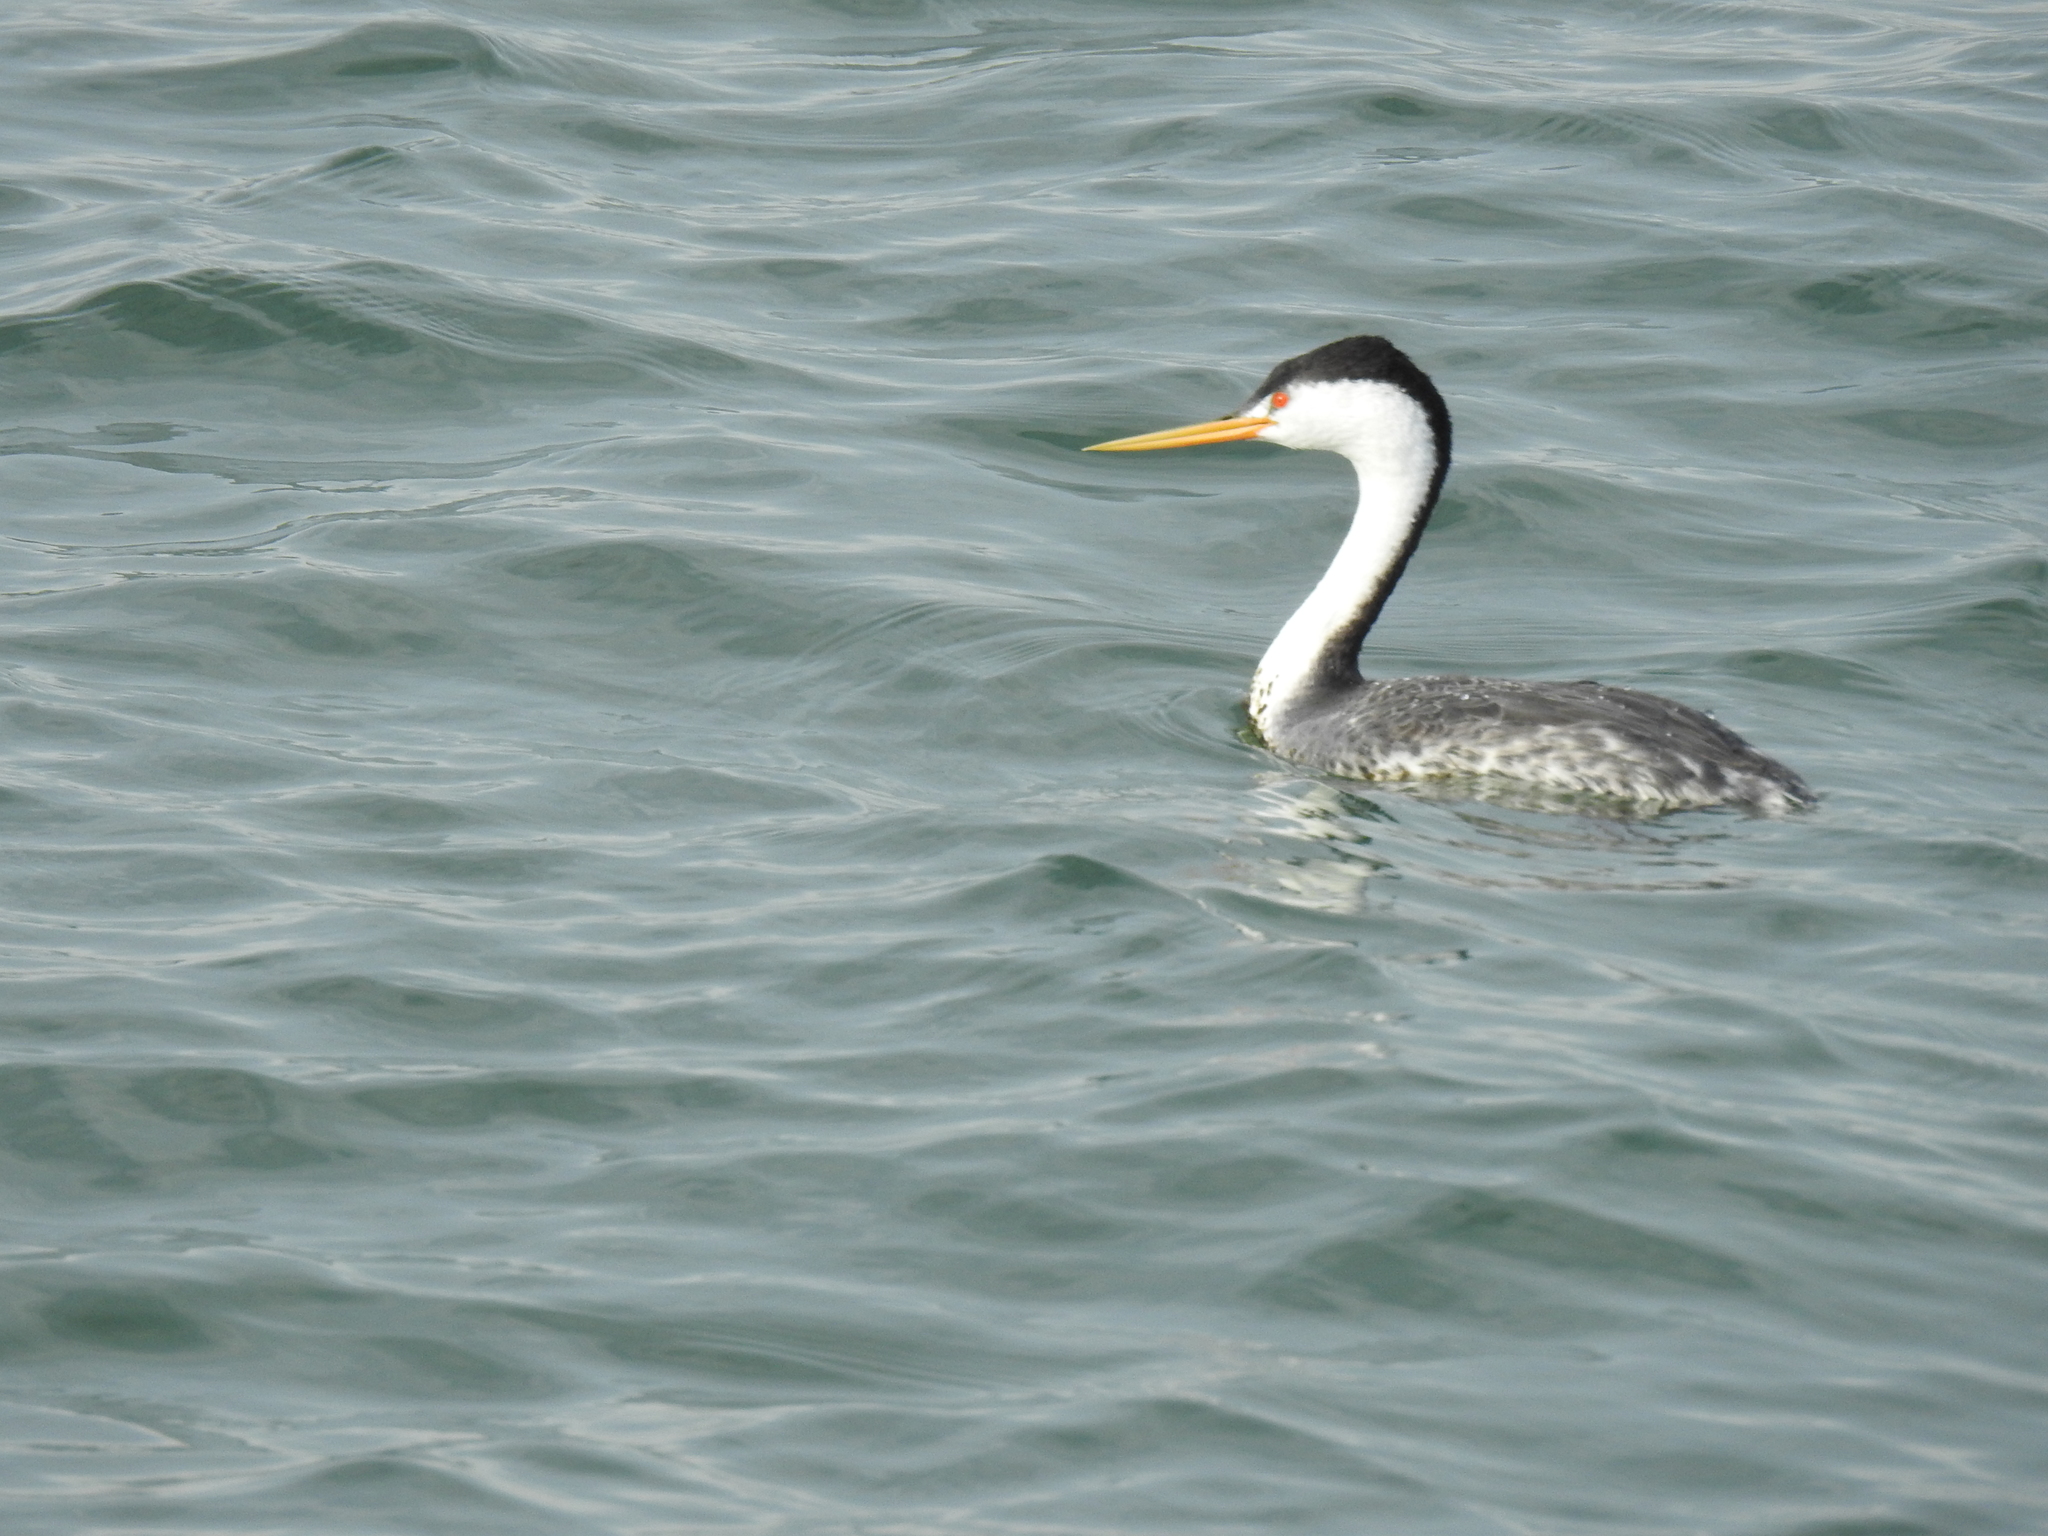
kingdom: Animalia
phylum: Chordata
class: Aves
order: Podicipediformes
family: Podicipedidae
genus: Aechmophorus
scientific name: Aechmophorus clarkii
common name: Clark's grebe
